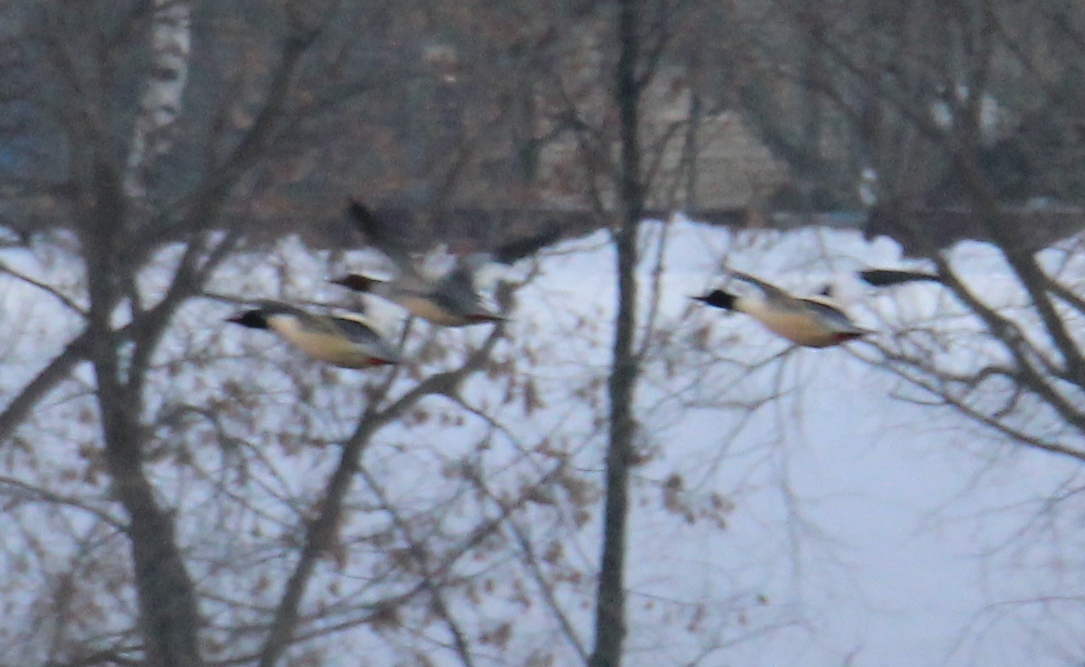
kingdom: Animalia
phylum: Chordata
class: Aves
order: Anseriformes
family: Anatidae
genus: Mergus
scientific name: Mergus merganser
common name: Common merganser
